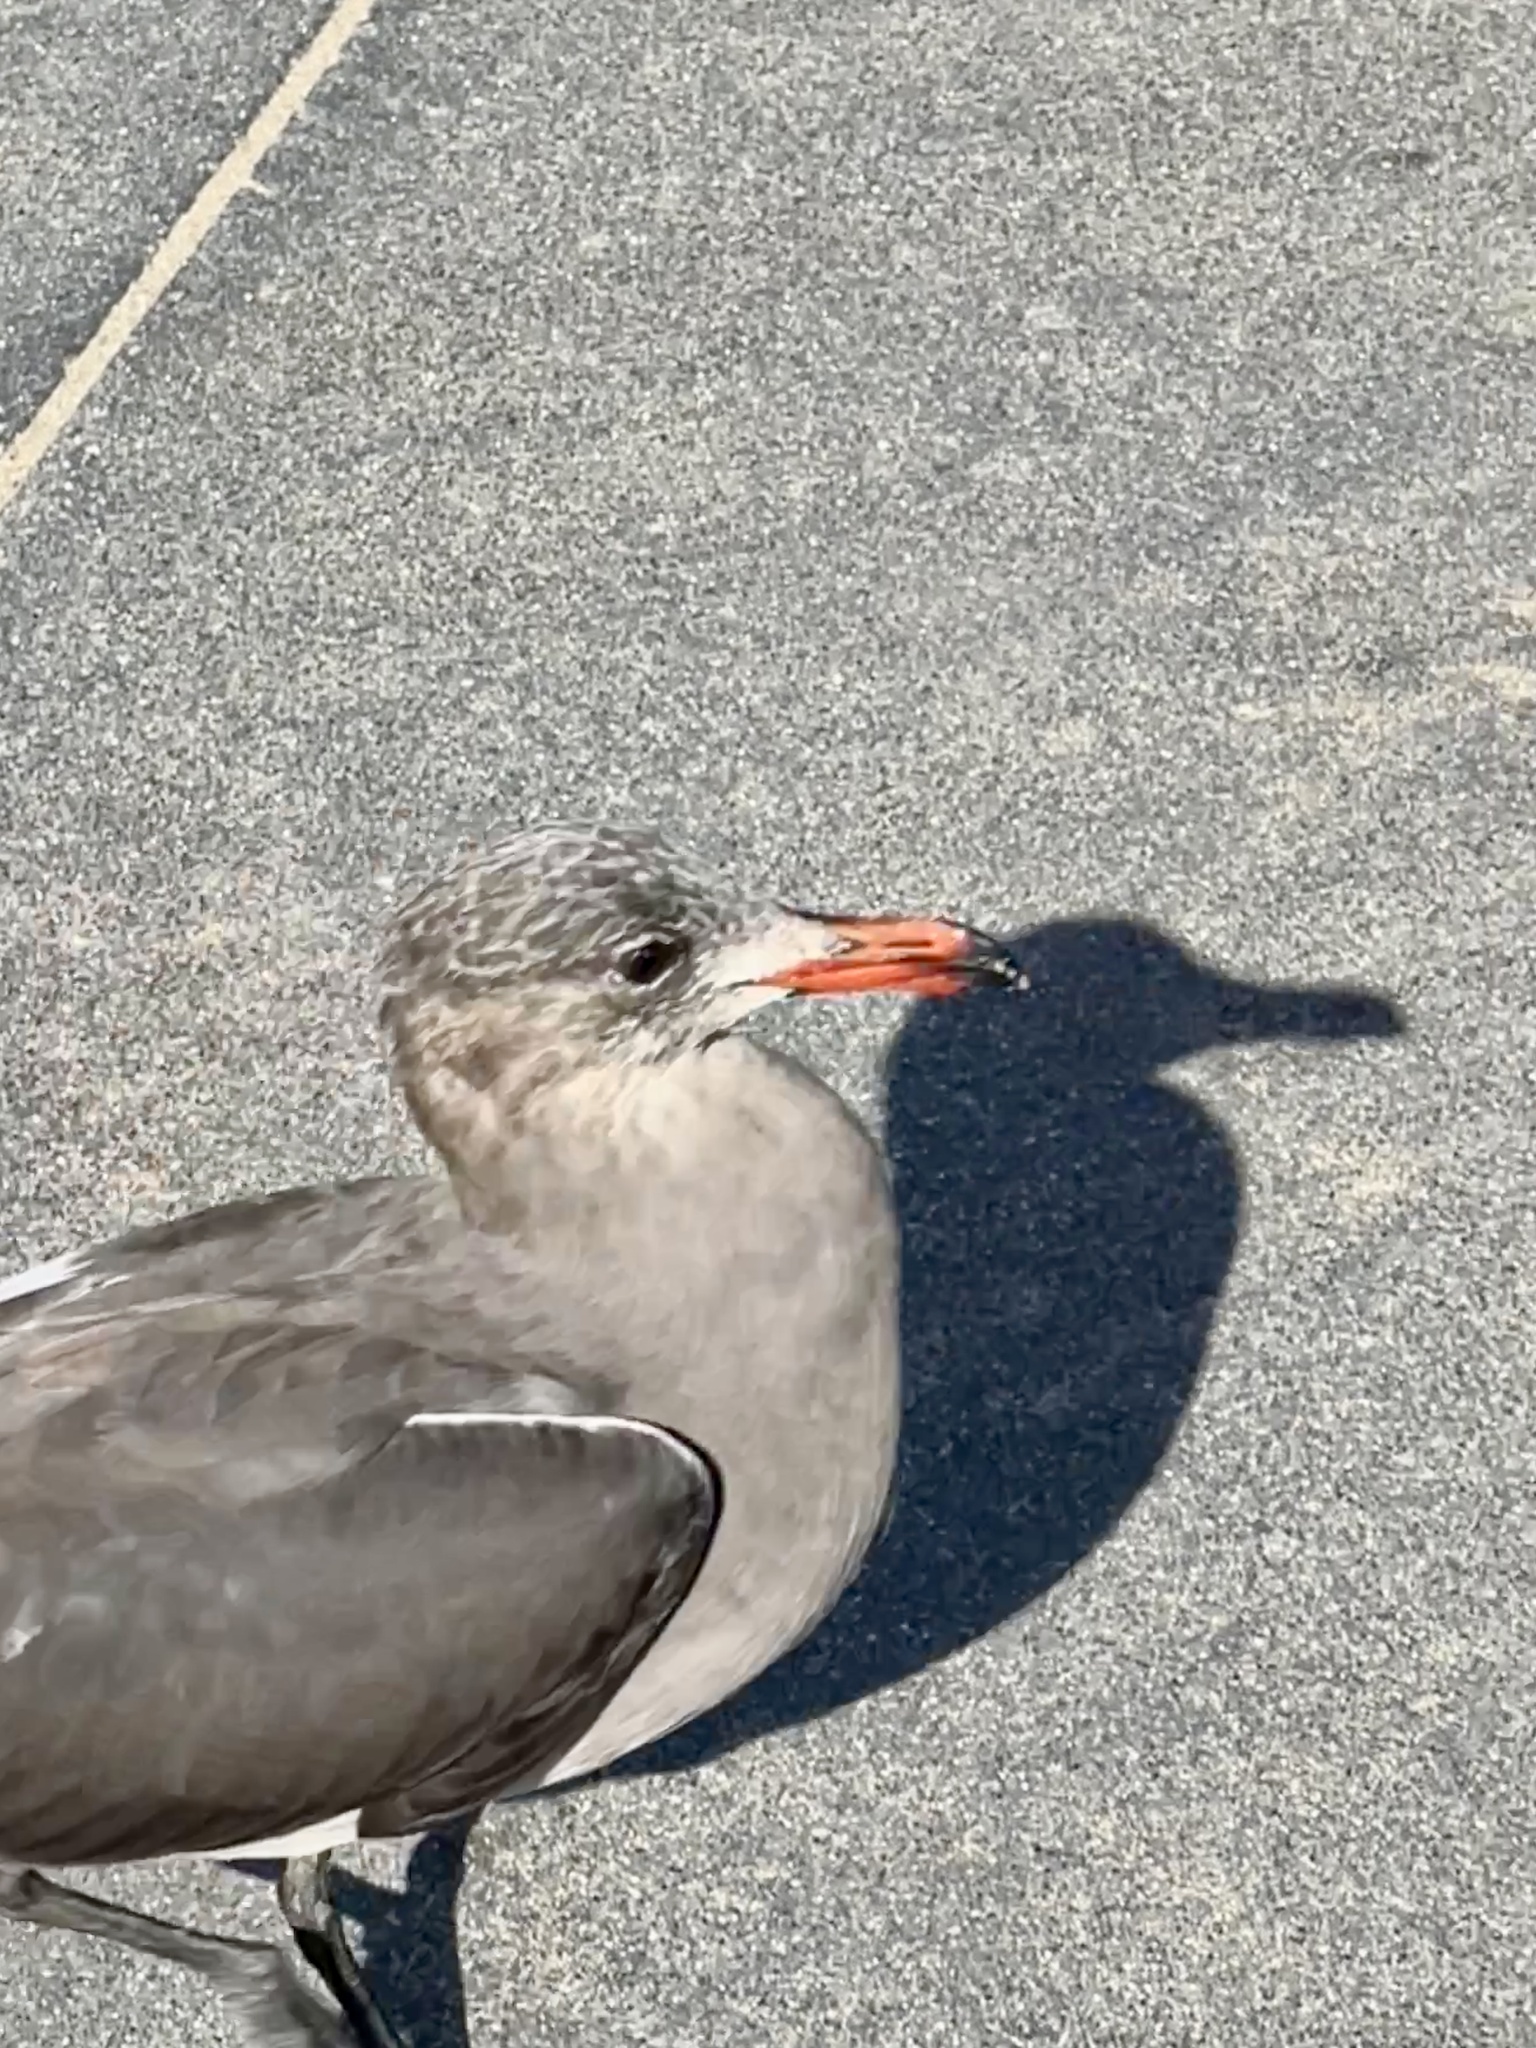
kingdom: Animalia
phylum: Chordata
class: Aves
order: Charadriiformes
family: Laridae
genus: Larus
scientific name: Larus heermanni
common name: Heermann's gull
